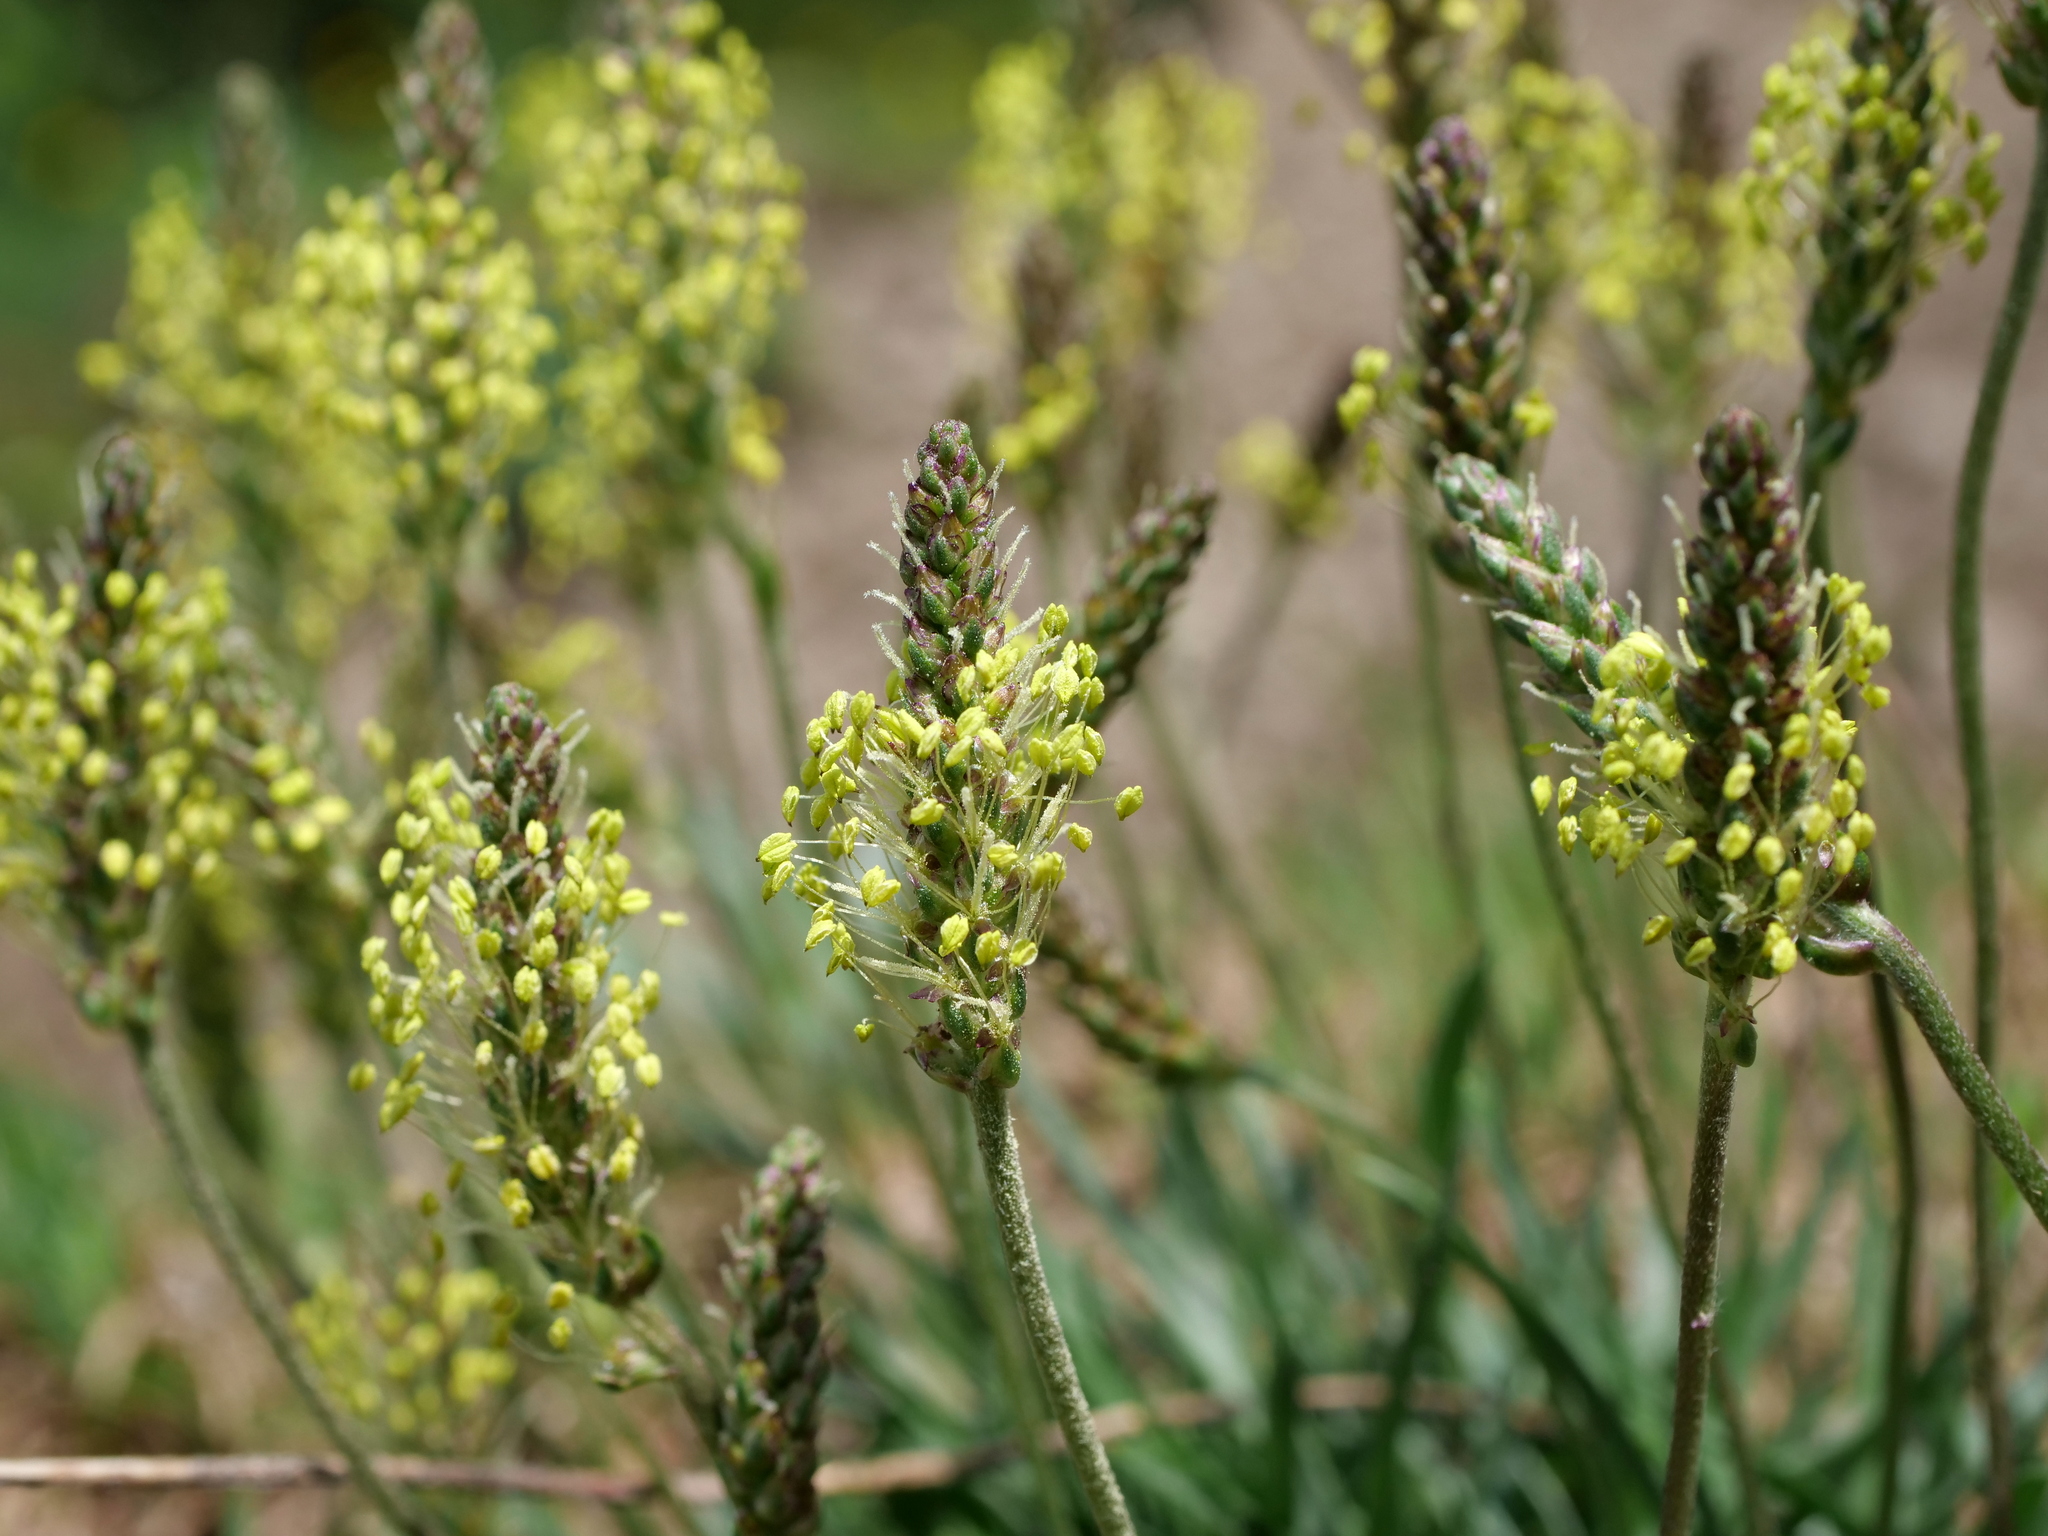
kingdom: Plantae
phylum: Tracheophyta
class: Magnoliopsida
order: Lamiales
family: Plantaginaceae
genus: Plantago
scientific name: Plantago alpina
